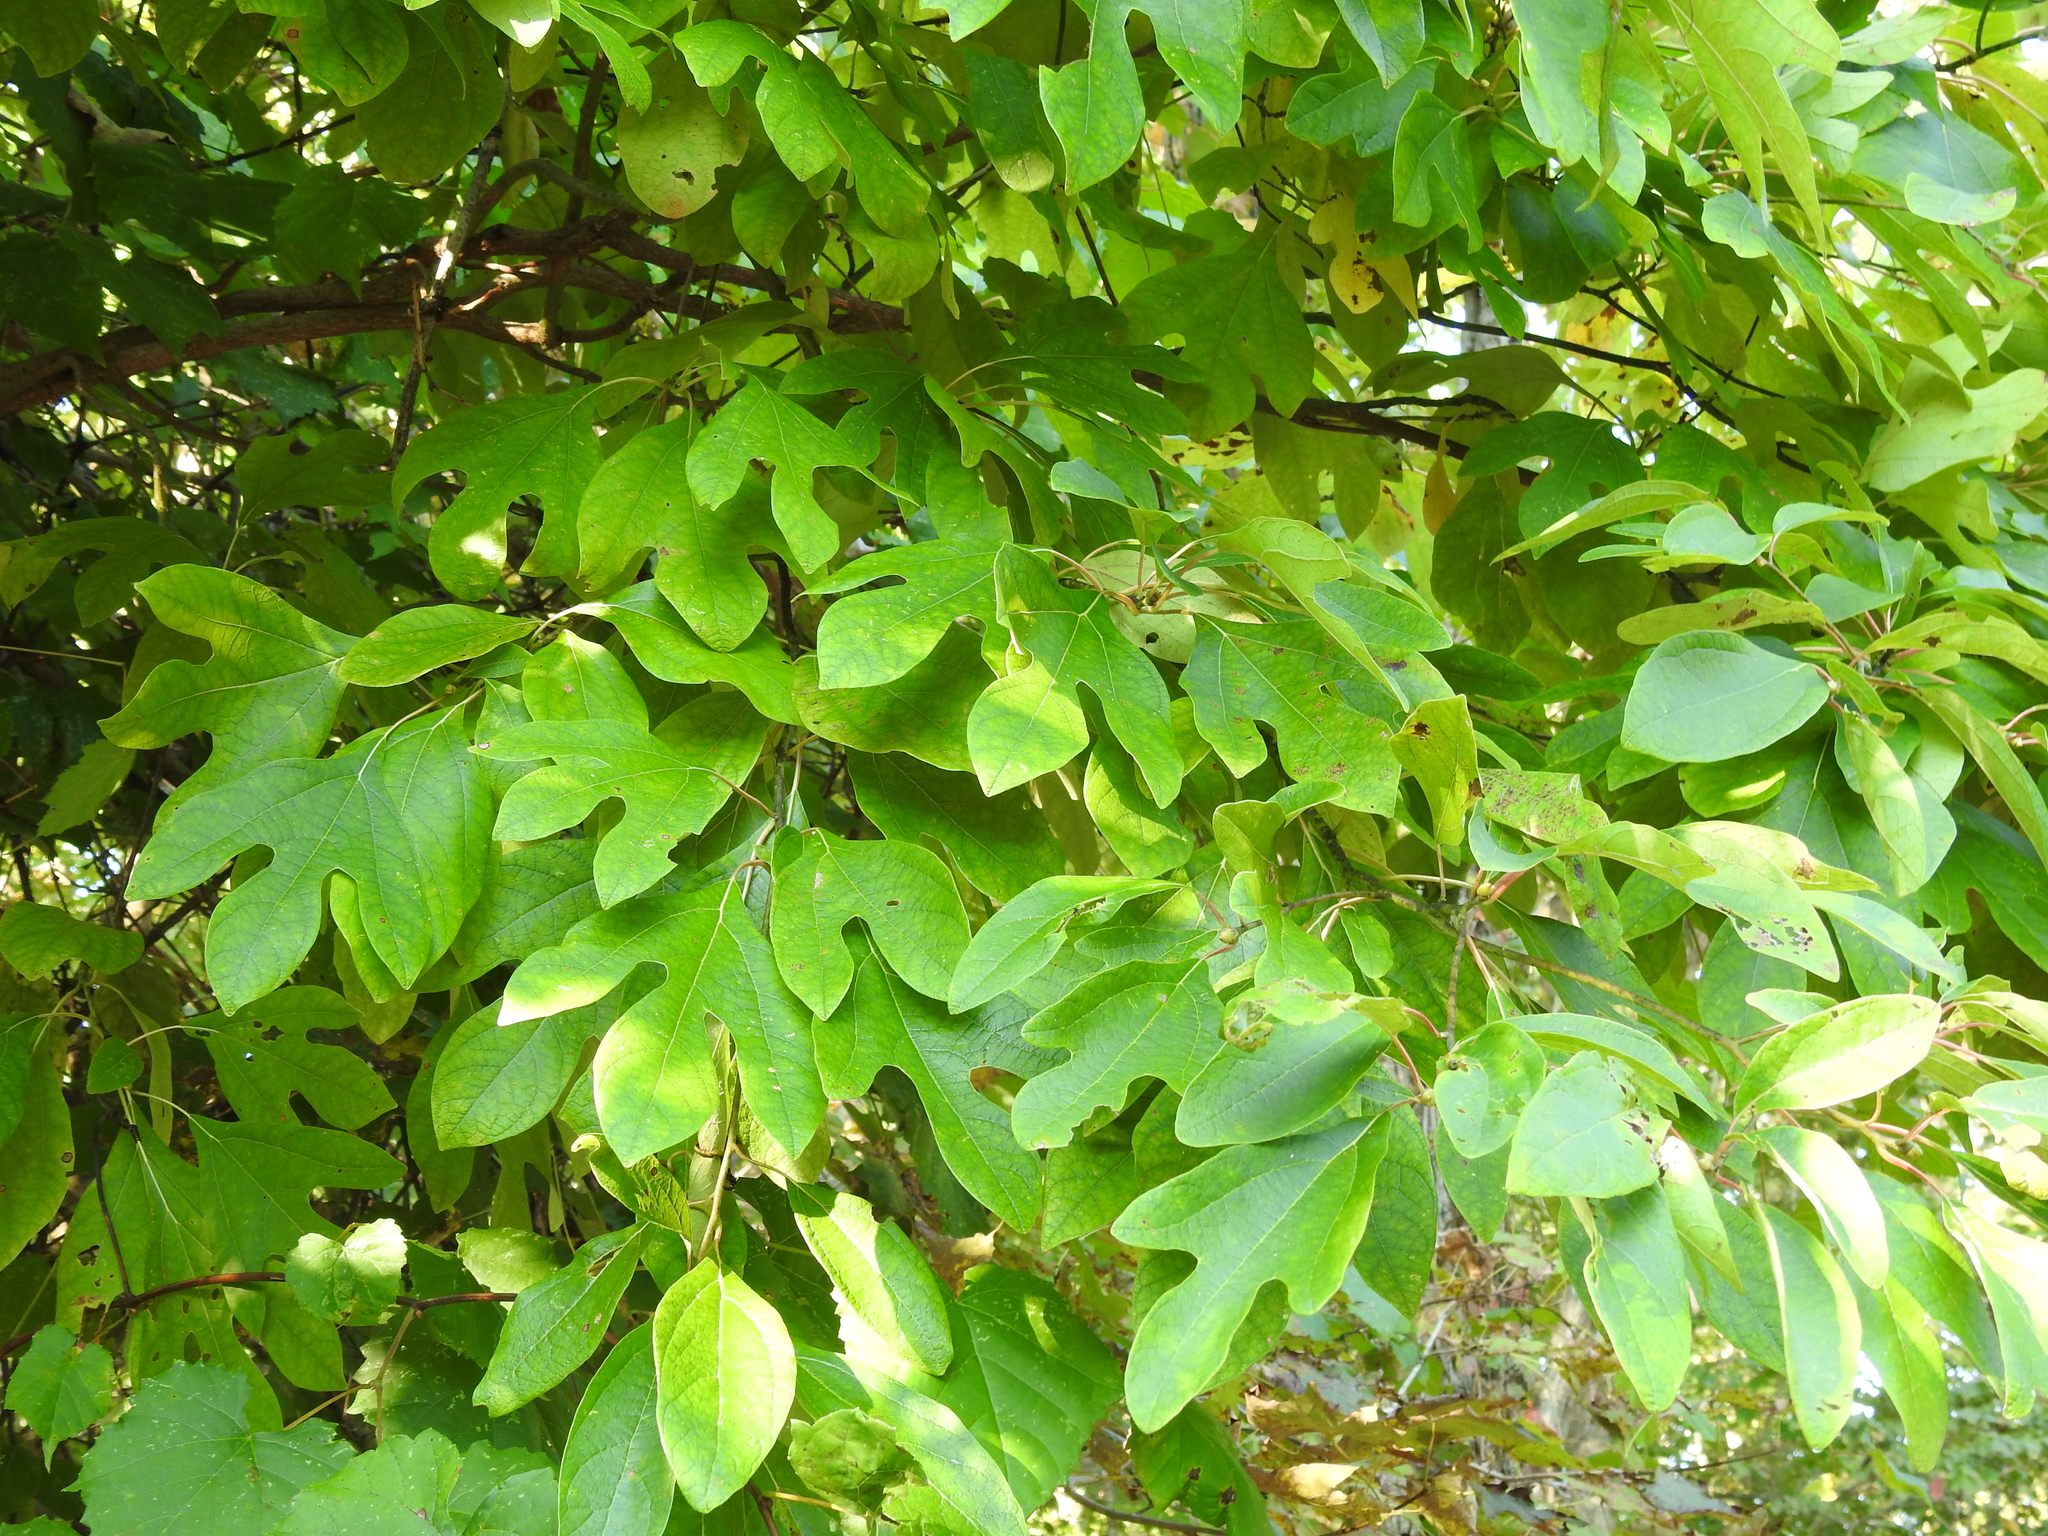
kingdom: Plantae
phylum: Tracheophyta
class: Magnoliopsida
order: Laurales
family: Lauraceae
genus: Sassafras
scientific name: Sassafras albidum
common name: Sassafras
